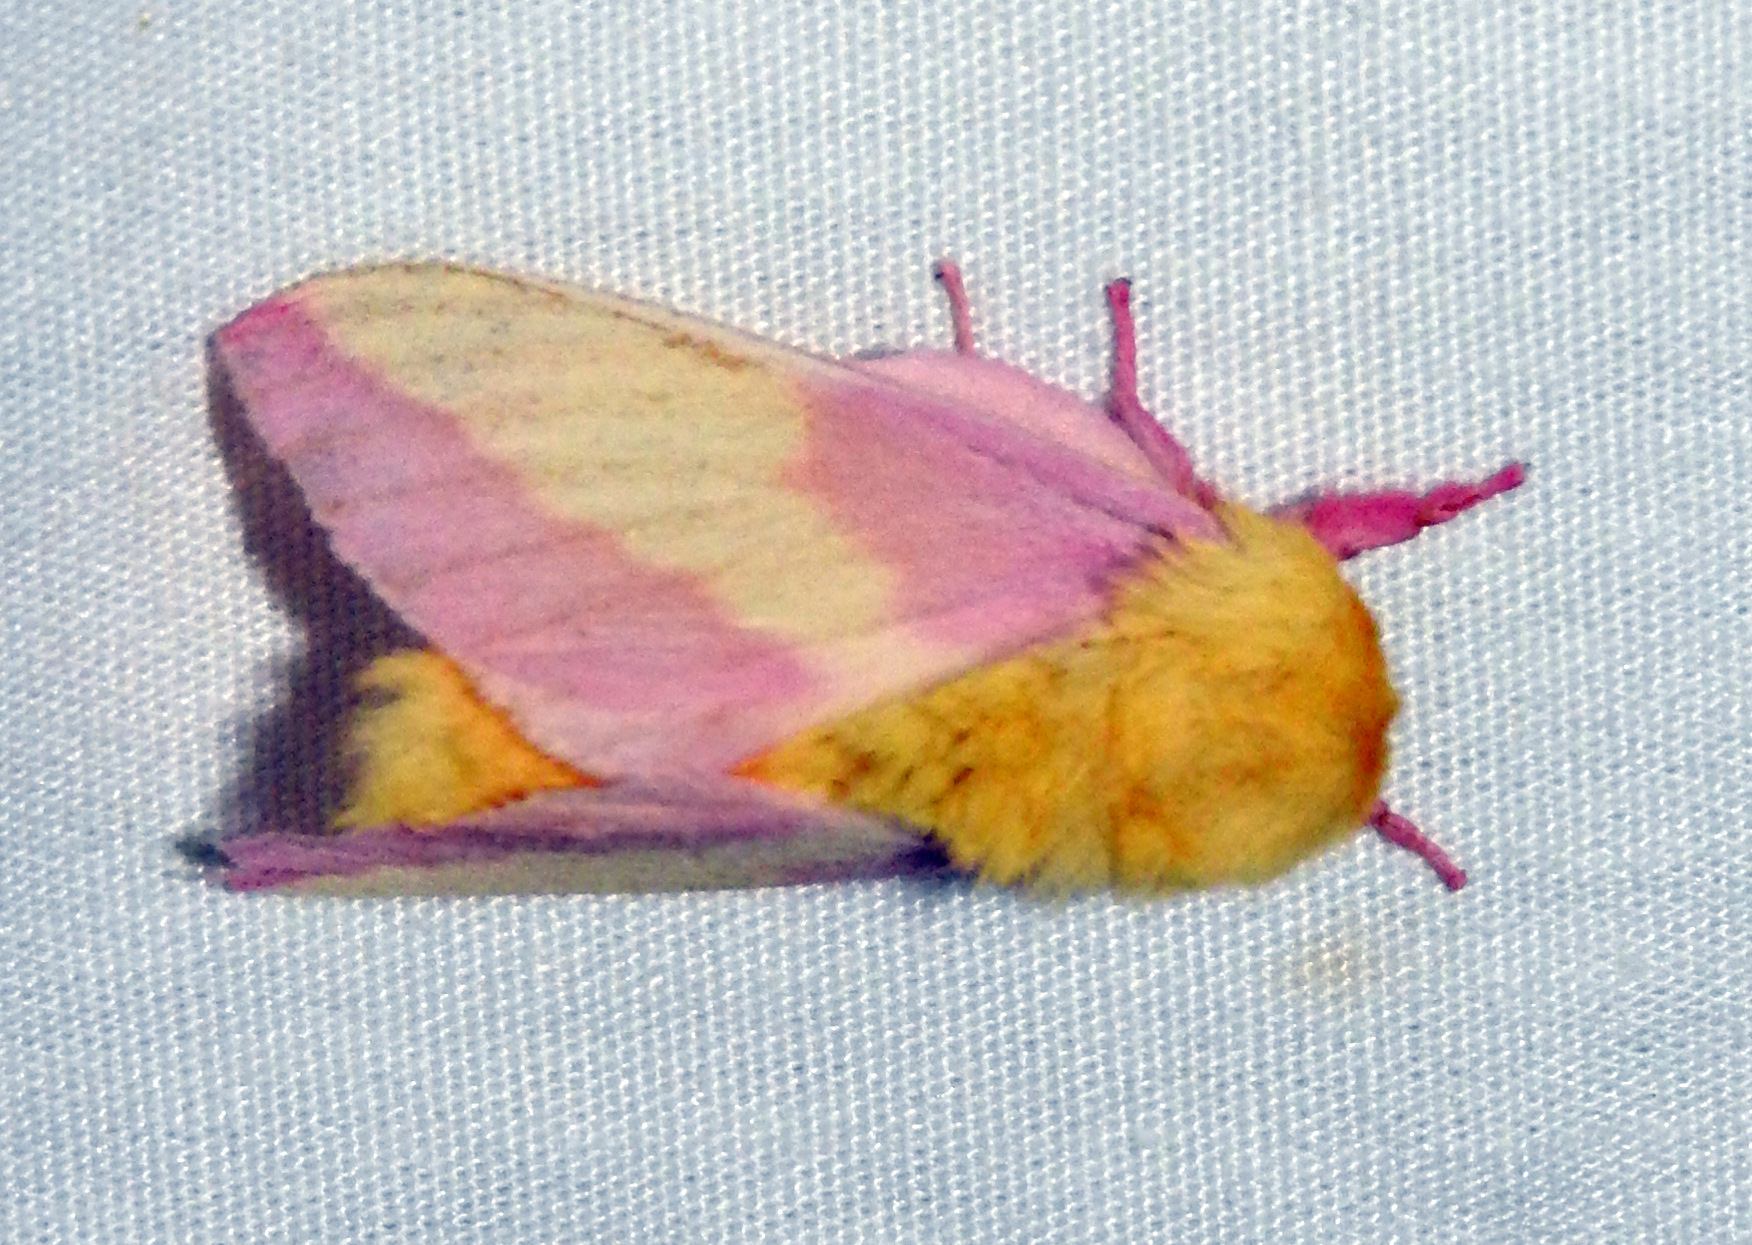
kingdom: Animalia
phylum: Arthropoda
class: Insecta
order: Lepidoptera
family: Saturniidae
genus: Dryocampa
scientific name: Dryocampa rubicunda
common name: Rosy maple moth
